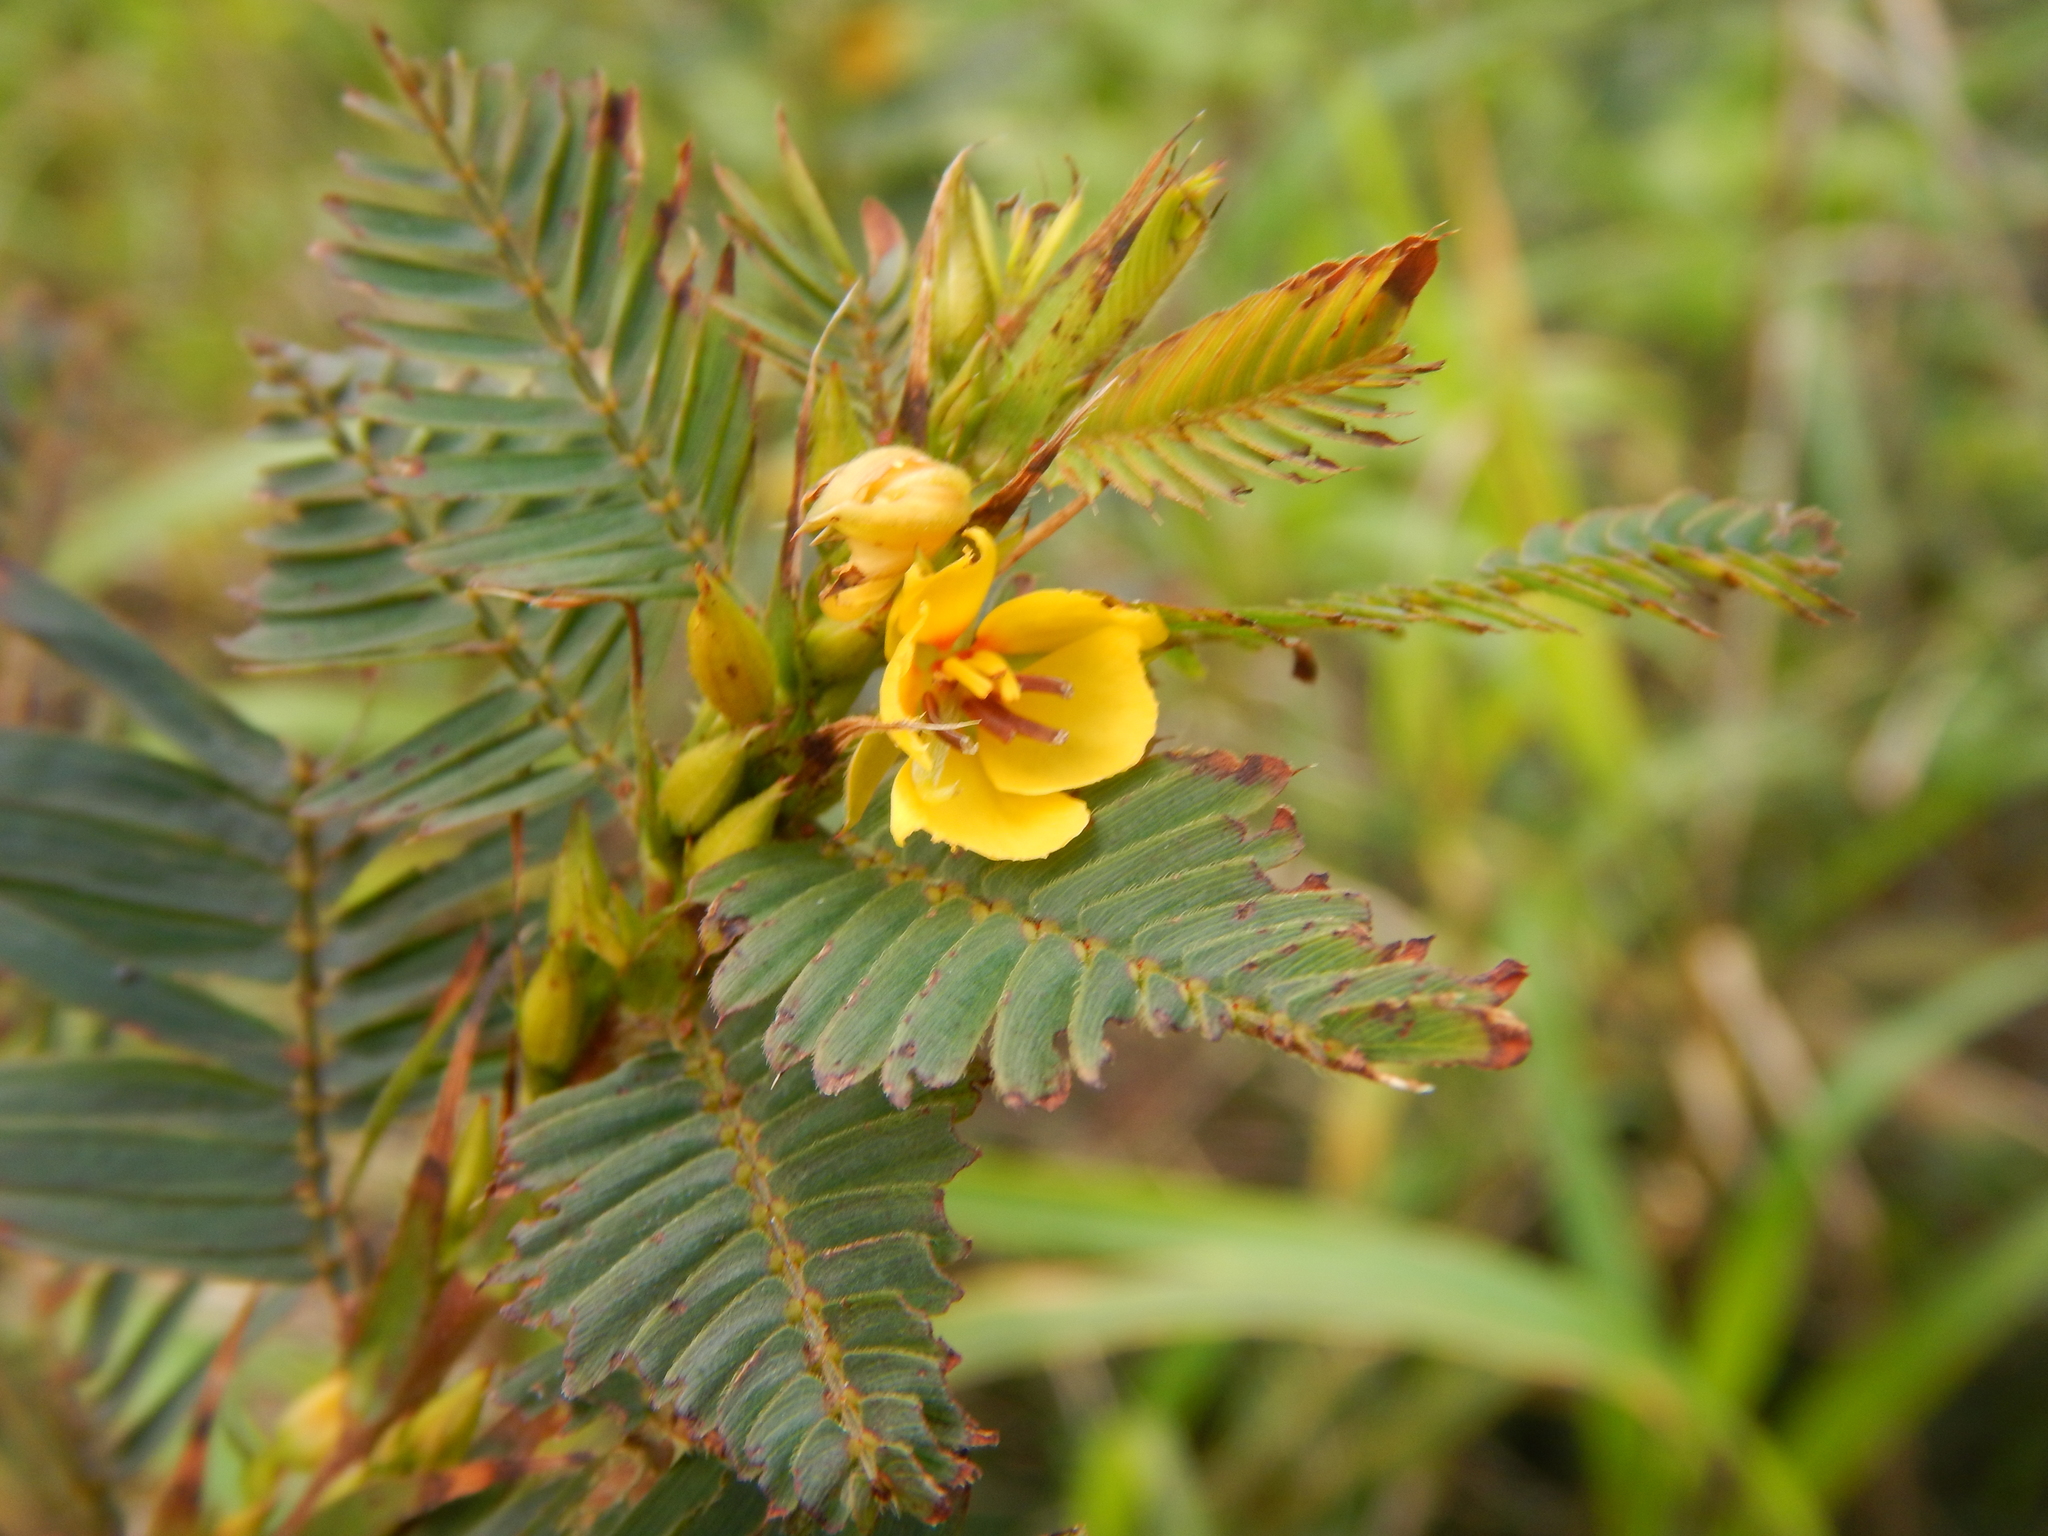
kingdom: Plantae
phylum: Tracheophyta
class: Magnoliopsida
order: Fabales
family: Fabaceae
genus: Chamaecrista
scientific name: Chamaecrista nictitans
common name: Sensitive cassia
